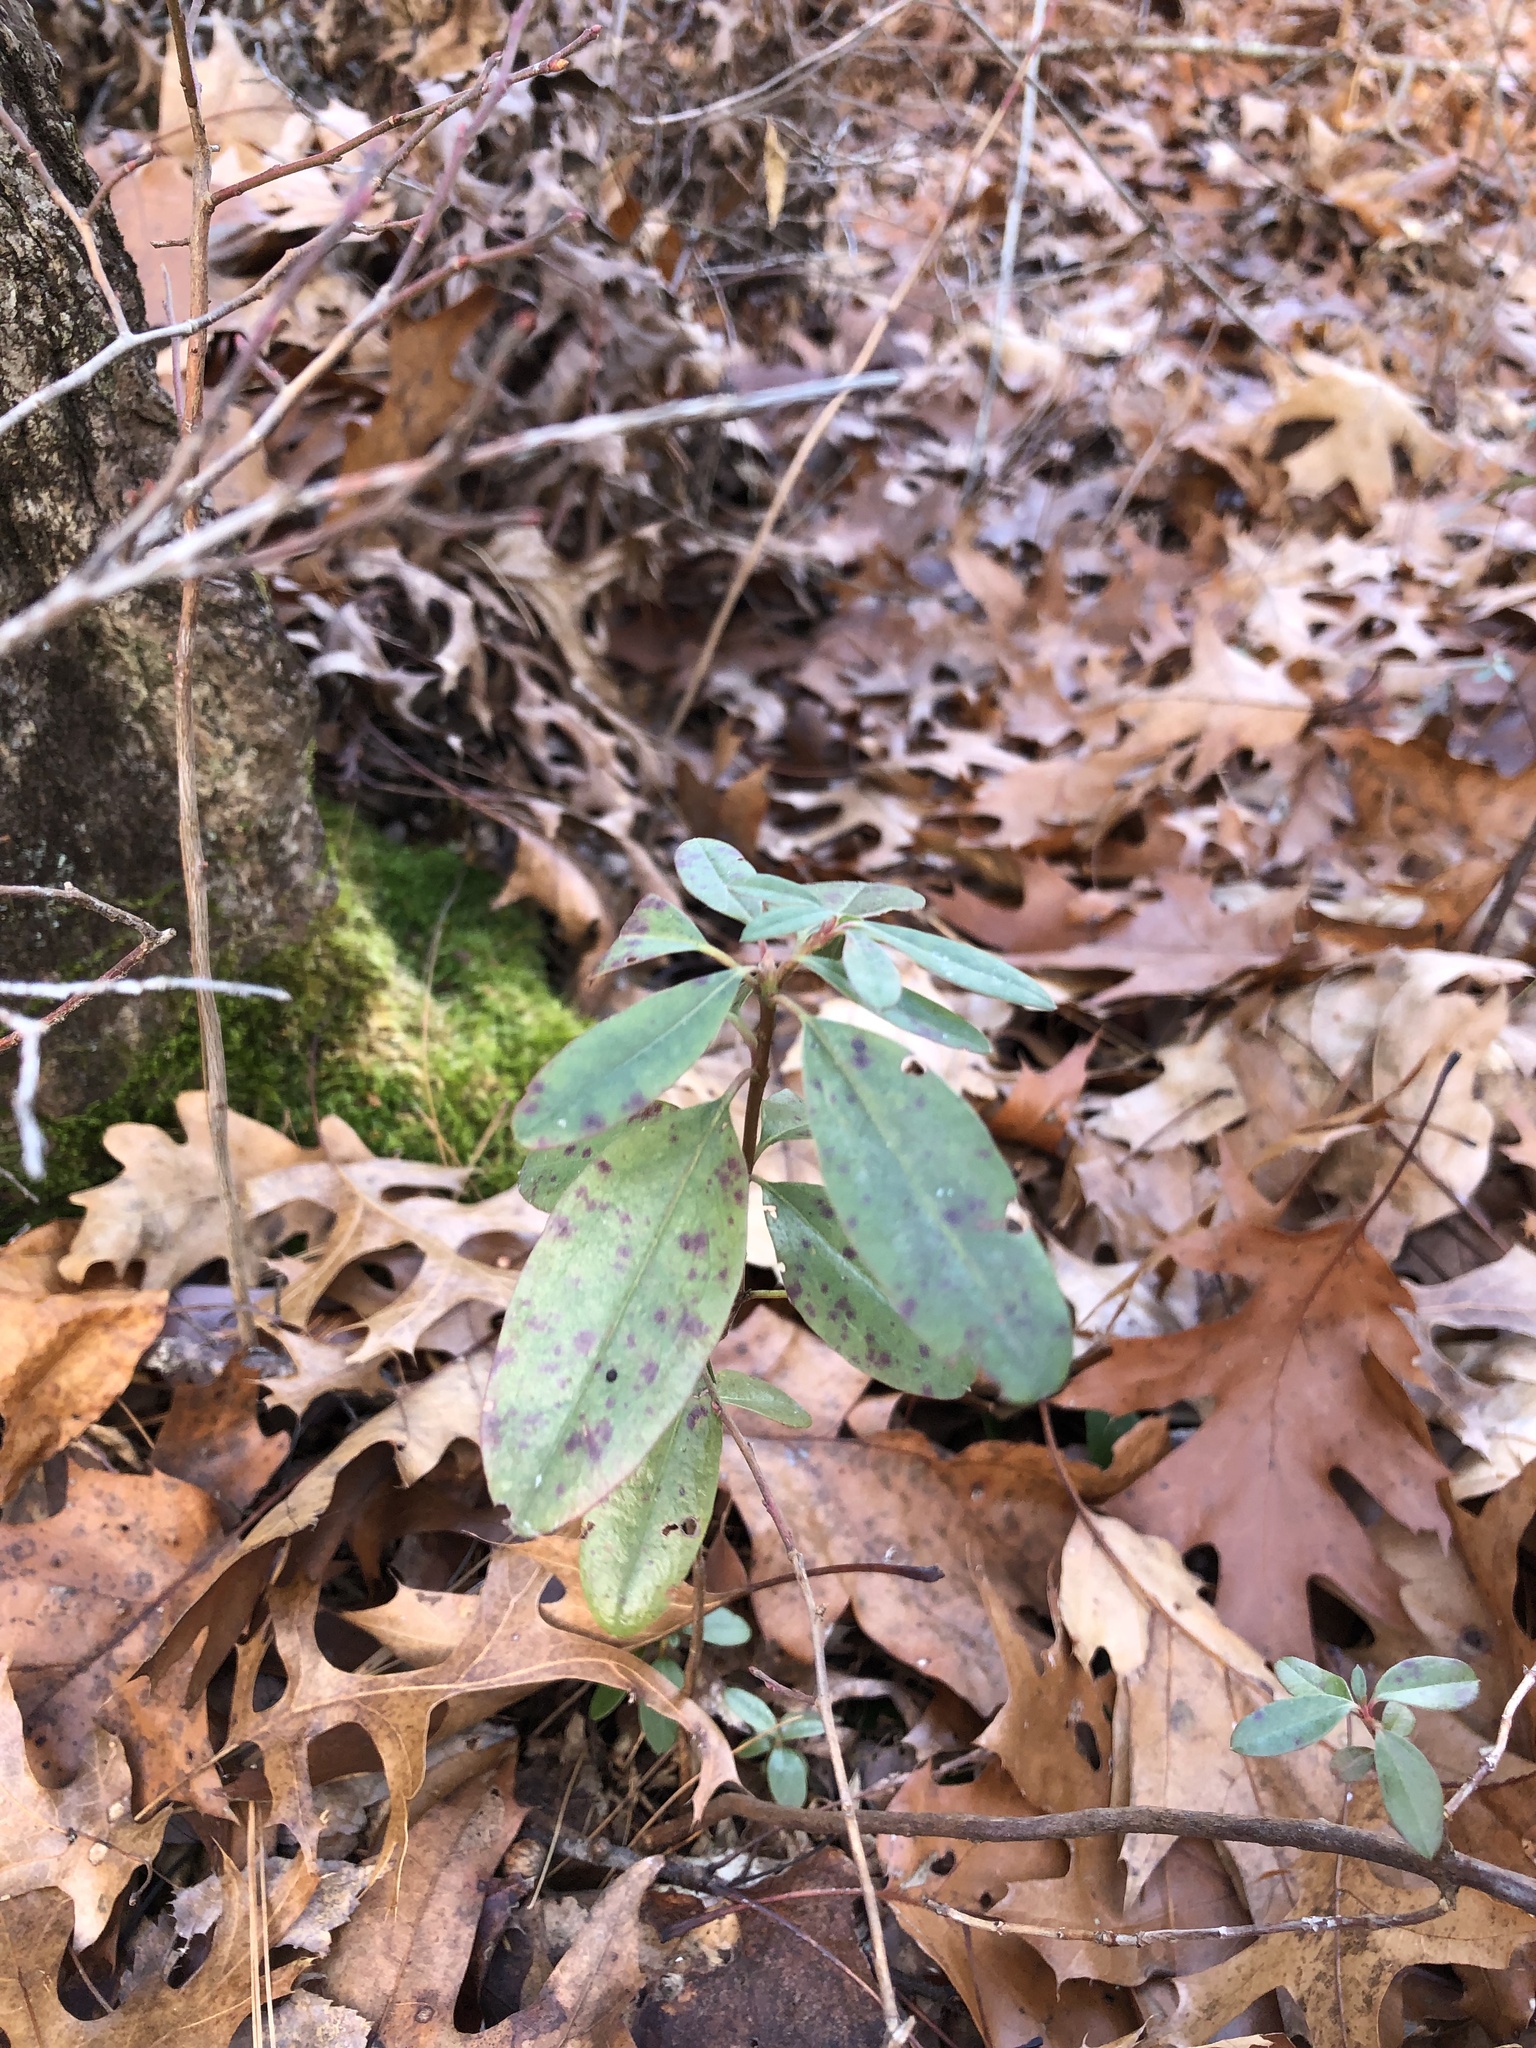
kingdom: Plantae
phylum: Tracheophyta
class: Magnoliopsida
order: Ericales
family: Ericaceae
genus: Kalmia
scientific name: Kalmia angustifolia
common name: Sheep-laurel
